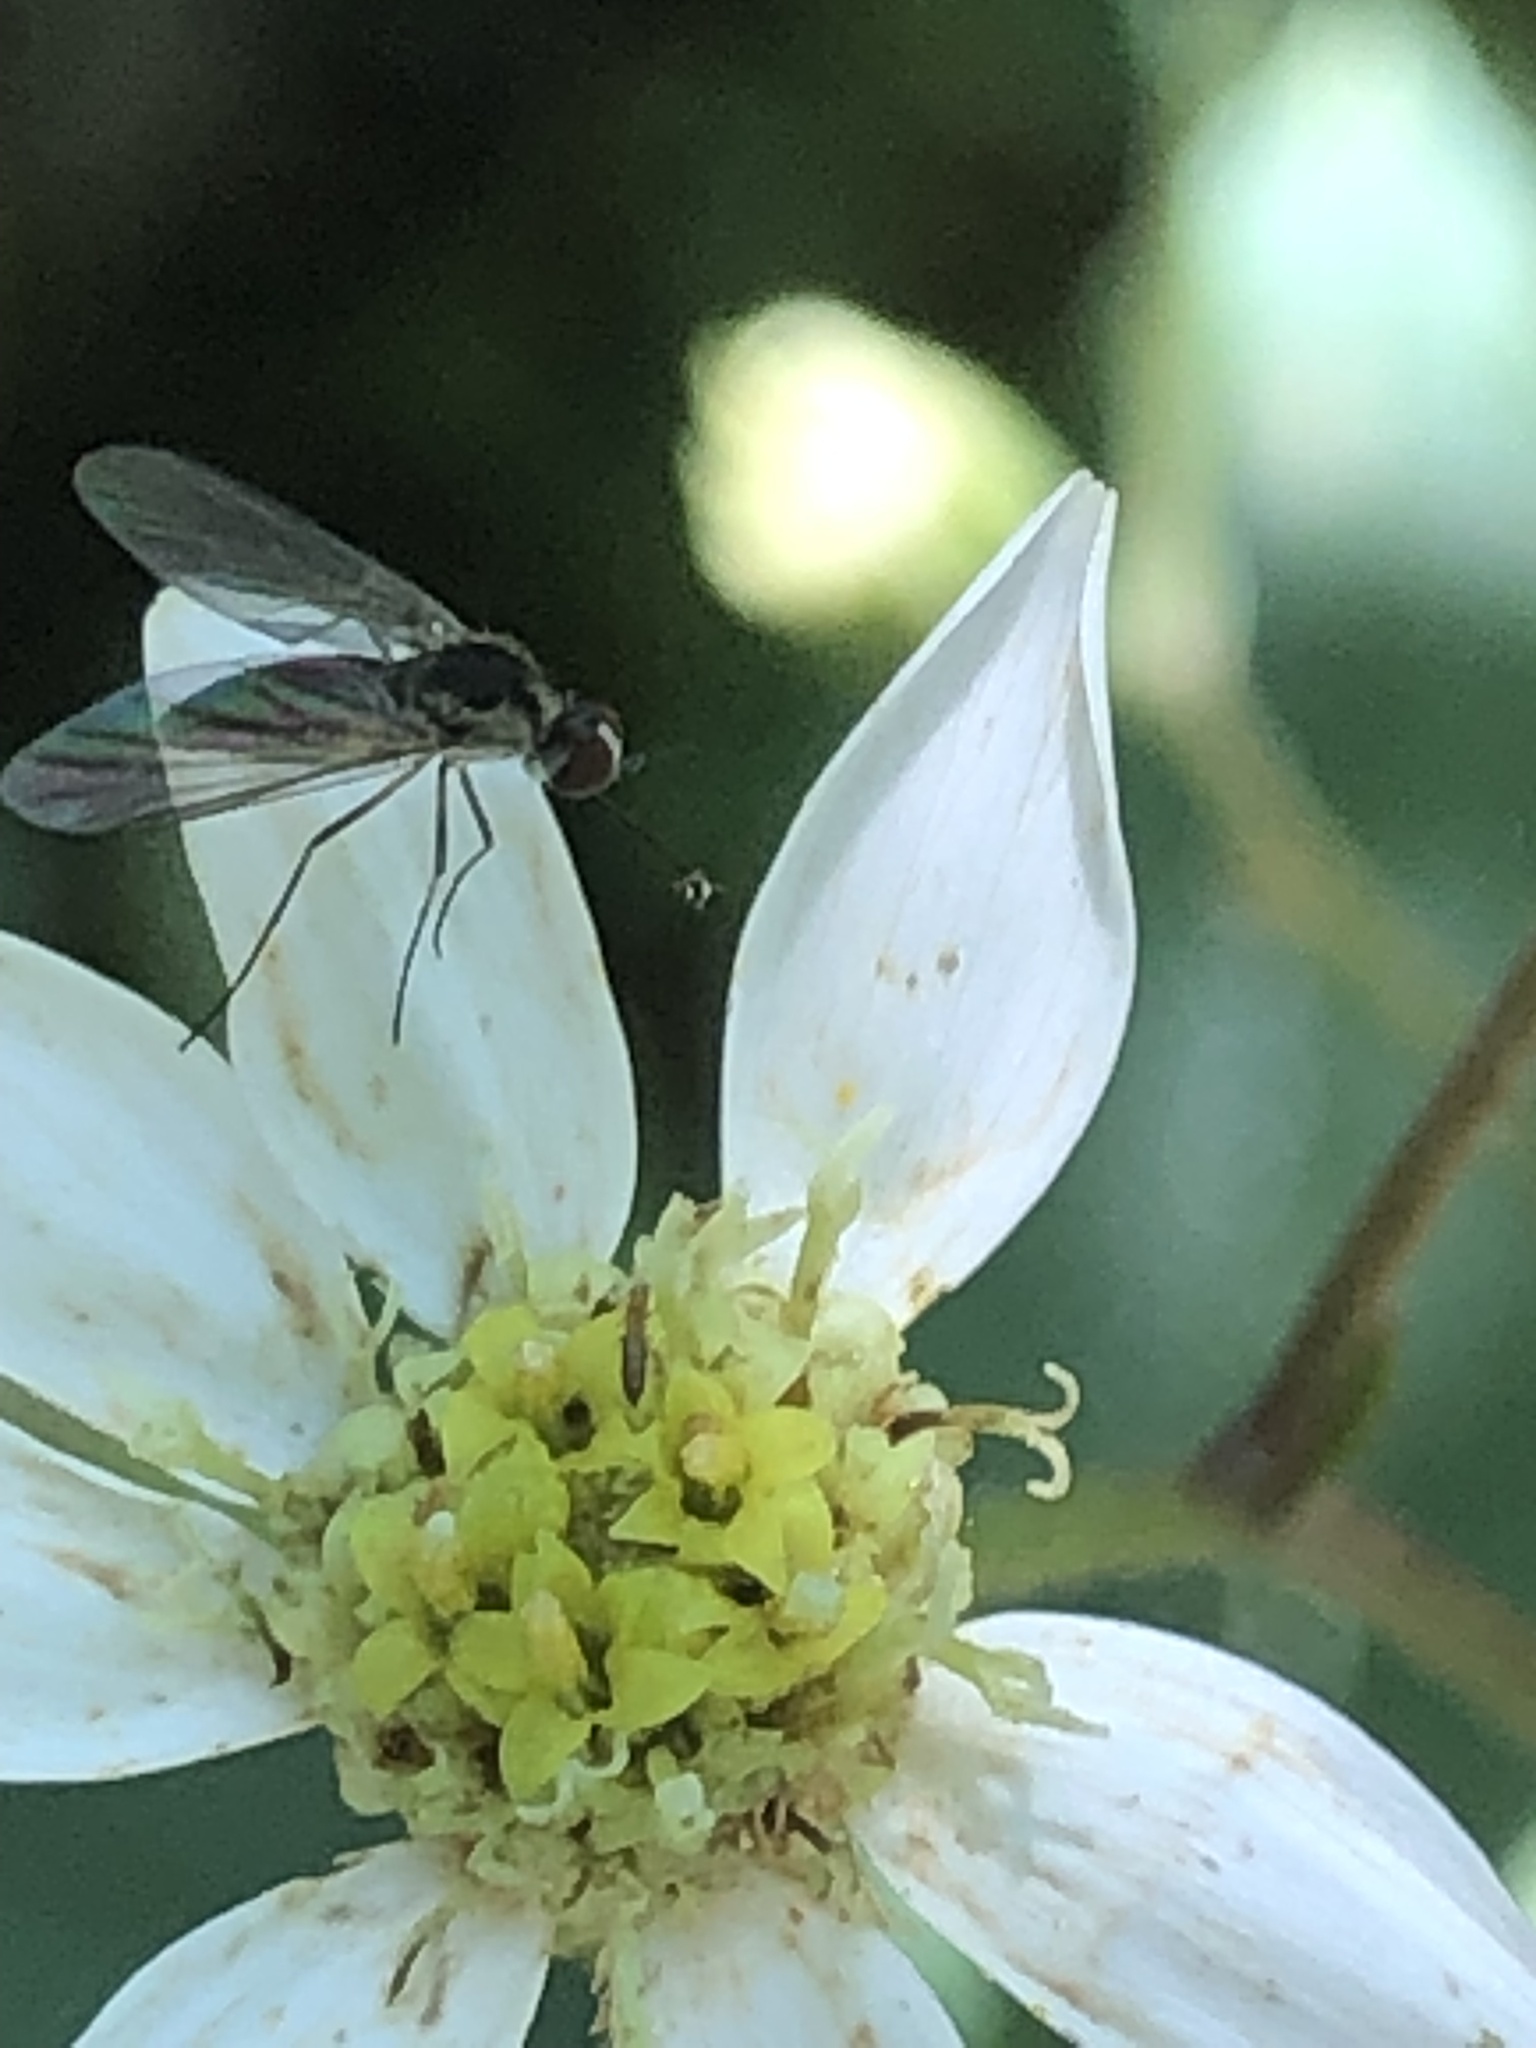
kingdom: Animalia
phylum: Arthropoda
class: Insecta
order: Diptera
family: Bombyliidae
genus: Geron
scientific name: Geron calvus
